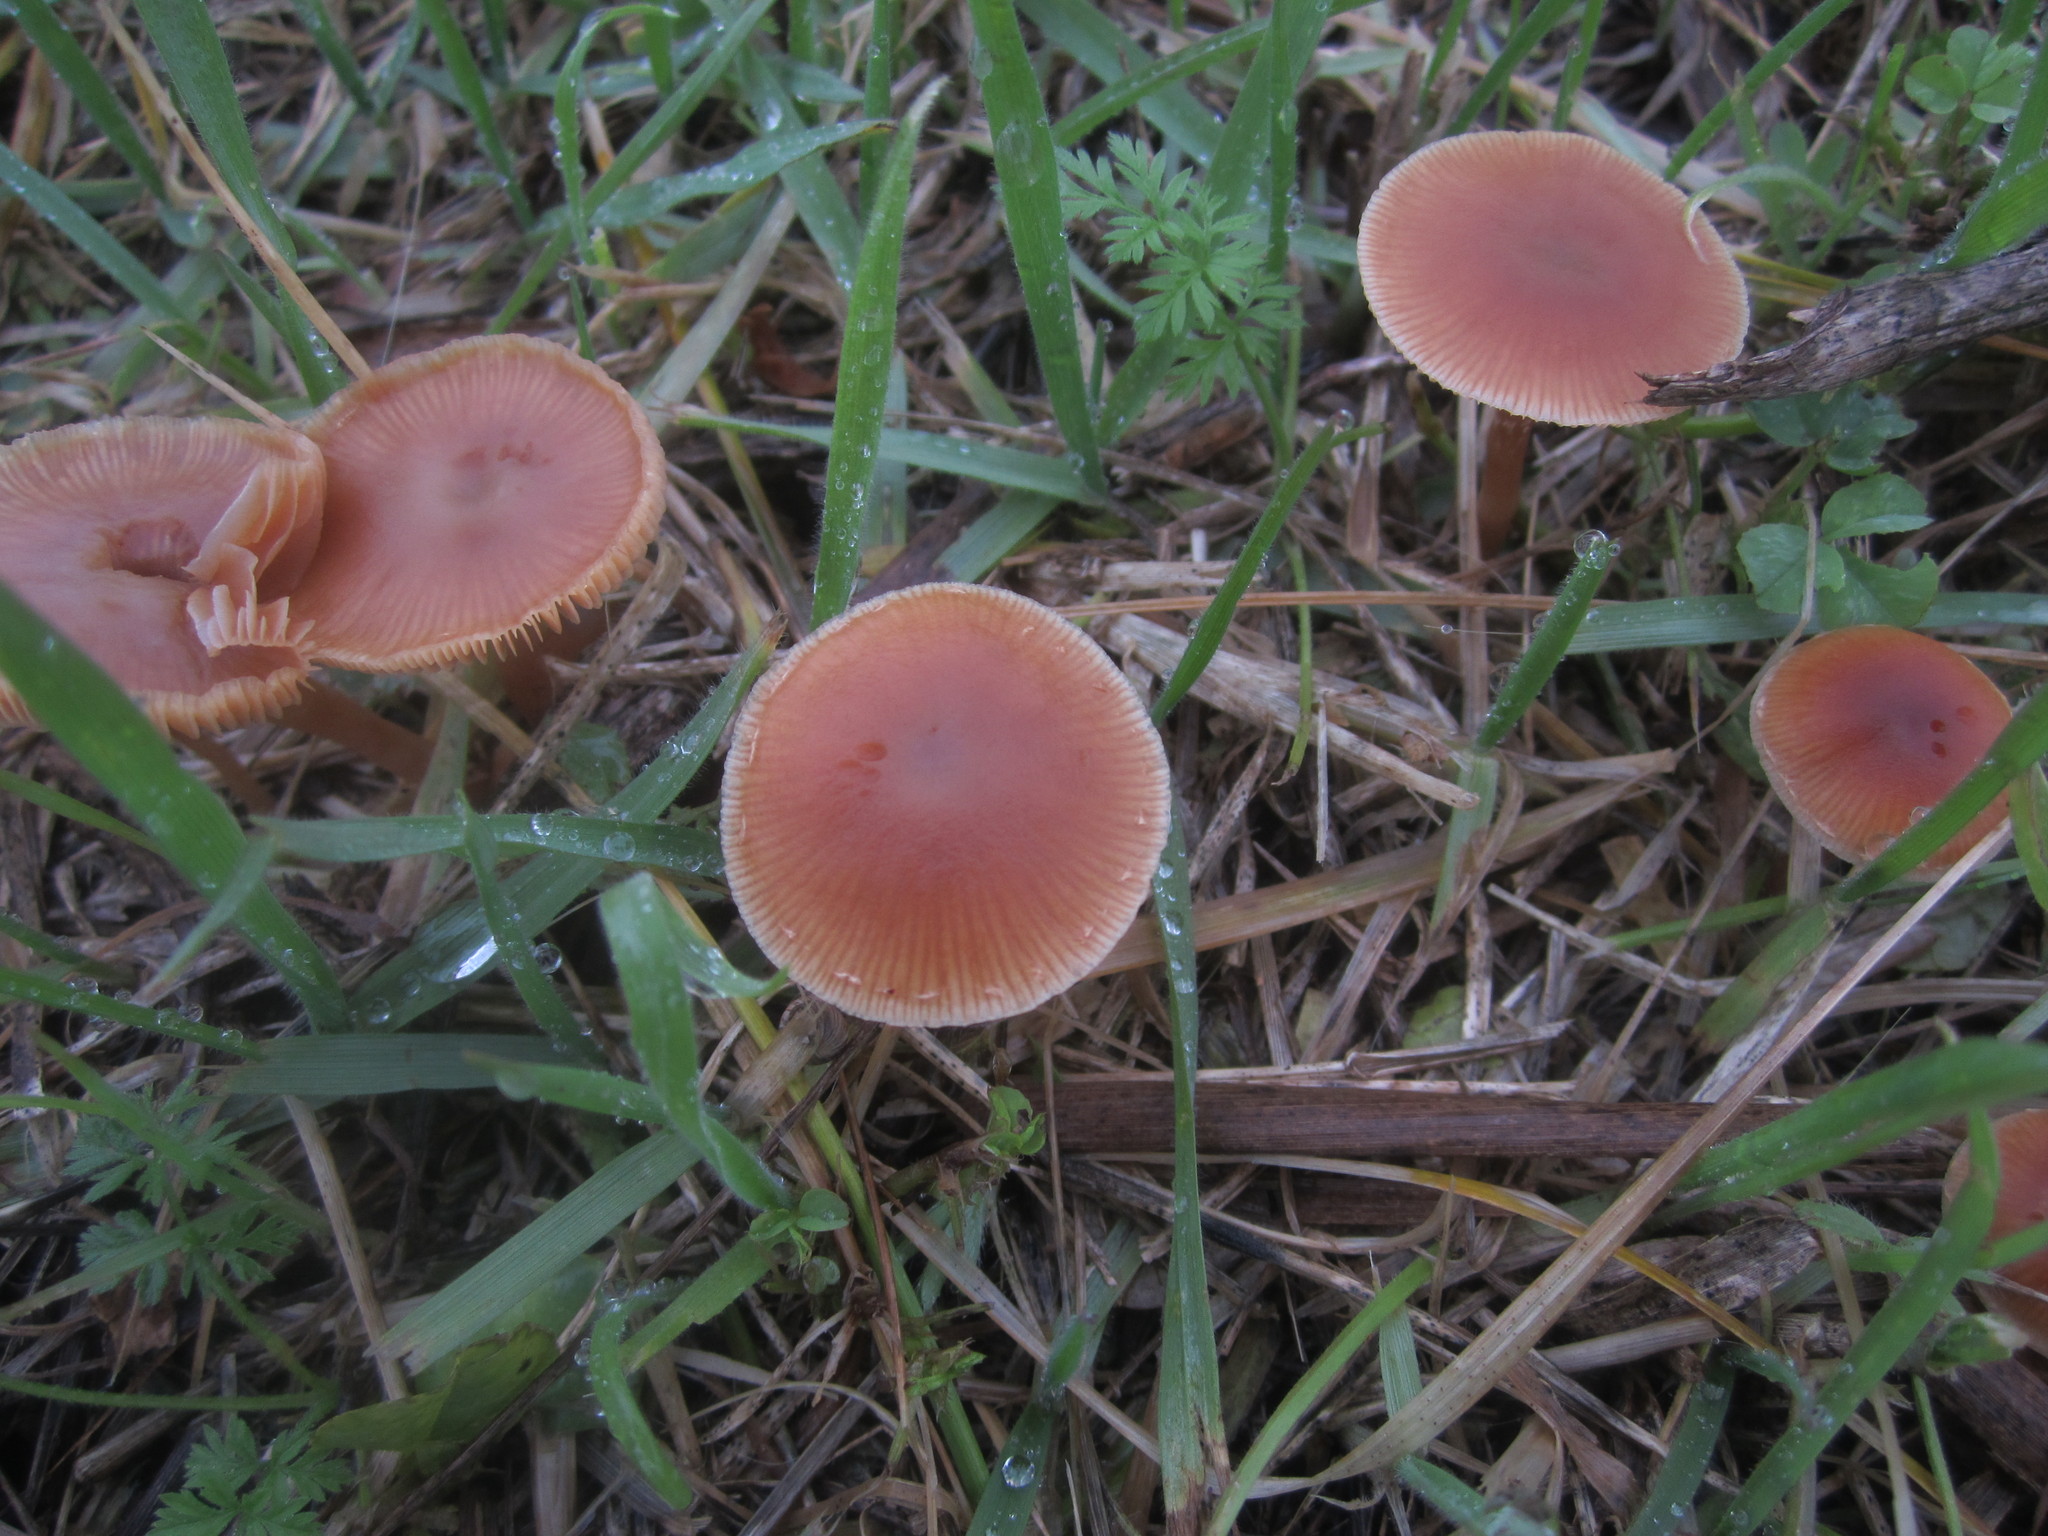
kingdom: Fungi
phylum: Basidiomycota
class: Agaricomycetes
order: Agaricales
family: Tubariaceae
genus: Tubaria
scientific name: Tubaria furfuracea
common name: Scurfy twiglet
